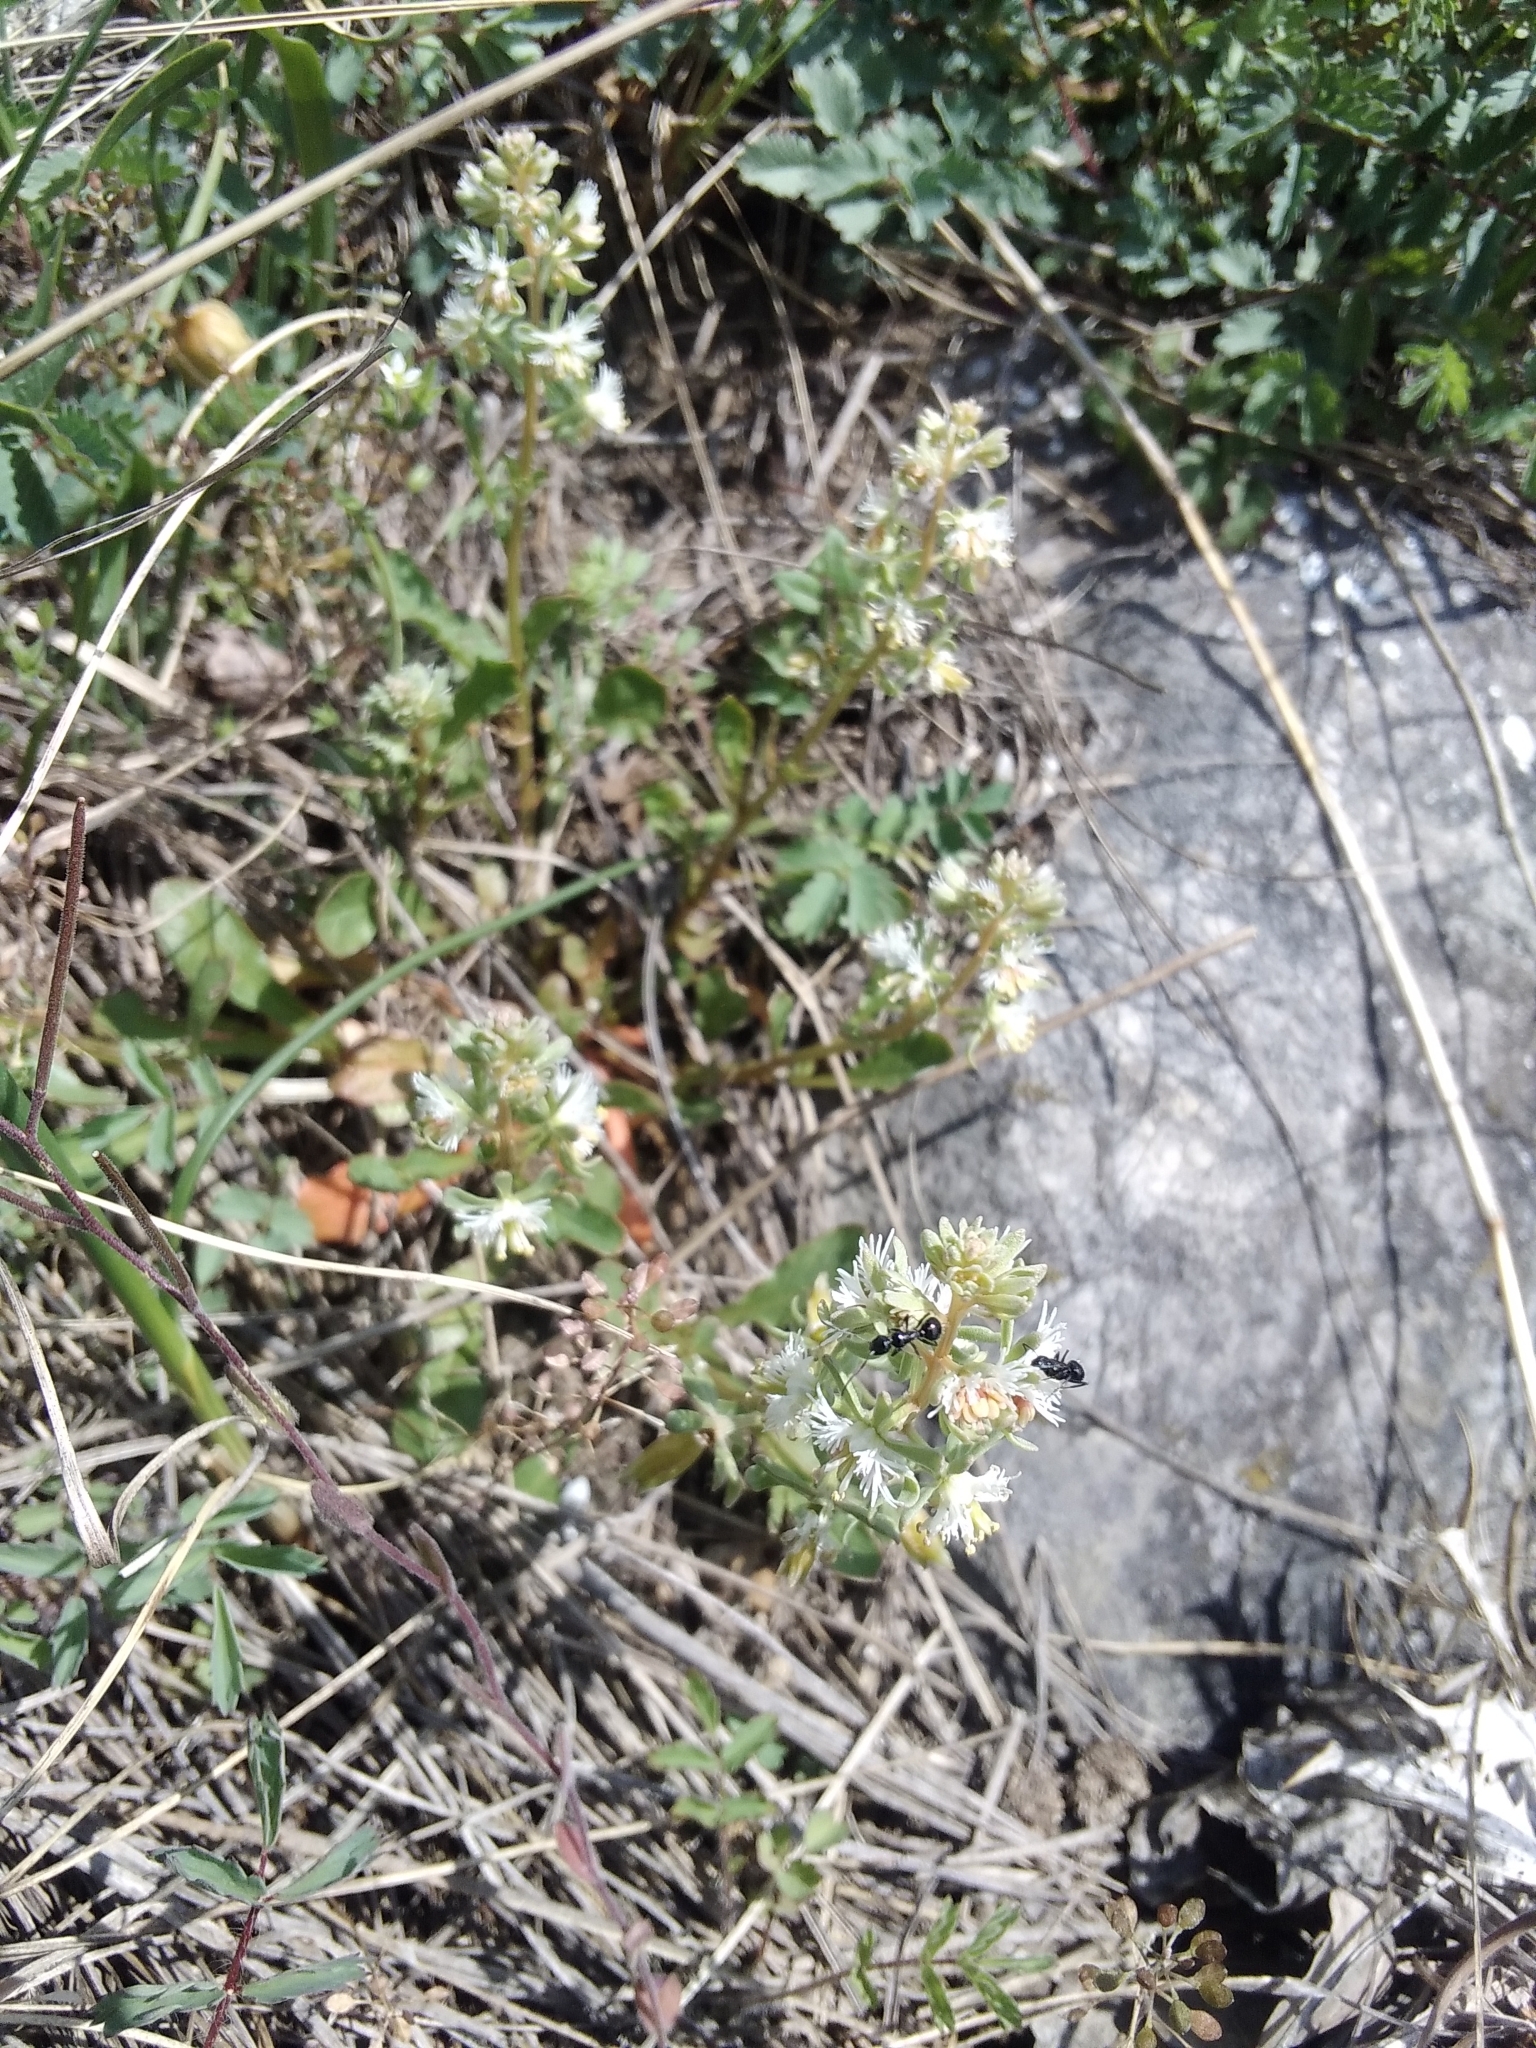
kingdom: Plantae
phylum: Tracheophyta
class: Magnoliopsida
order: Brassicales
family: Resedaceae
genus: Reseda
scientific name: Reseda phyteuma
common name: Corn mignonette
